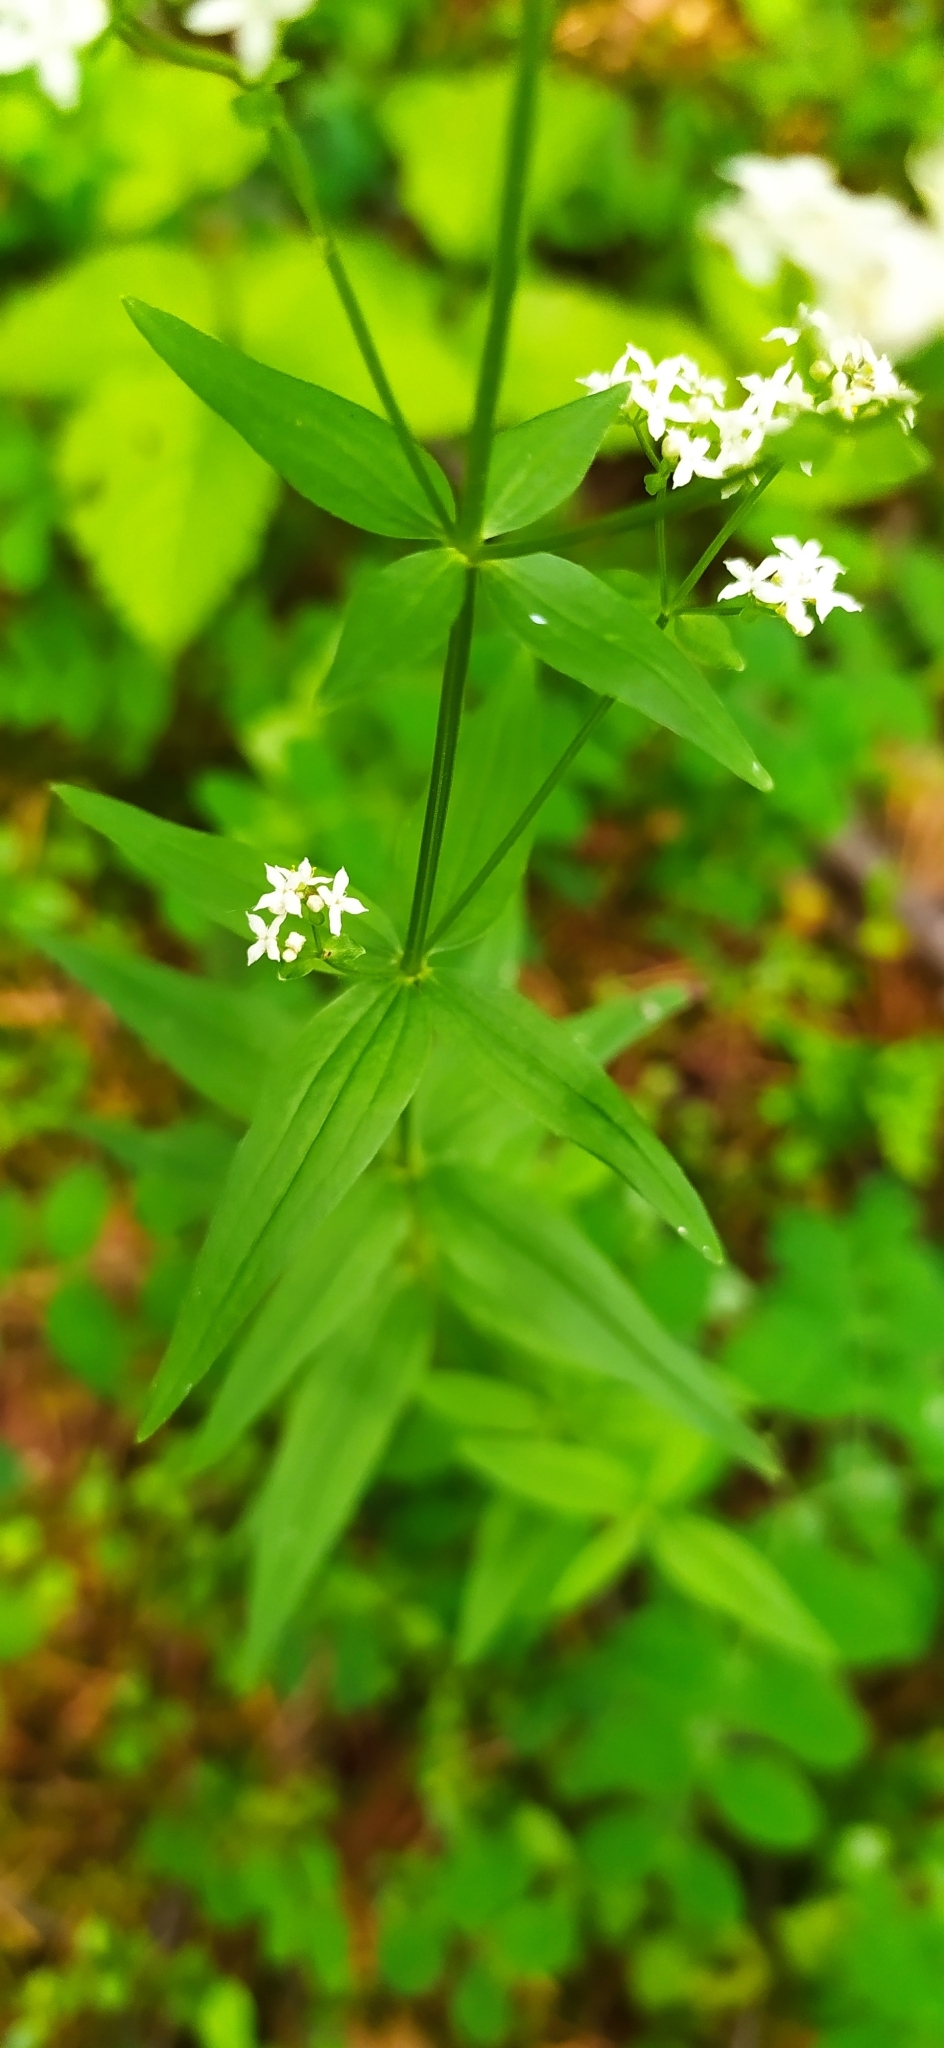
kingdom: Plantae
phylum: Tracheophyta
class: Magnoliopsida
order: Gentianales
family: Rubiaceae
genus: Galium
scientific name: Galium boreale
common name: Northern bedstraw
